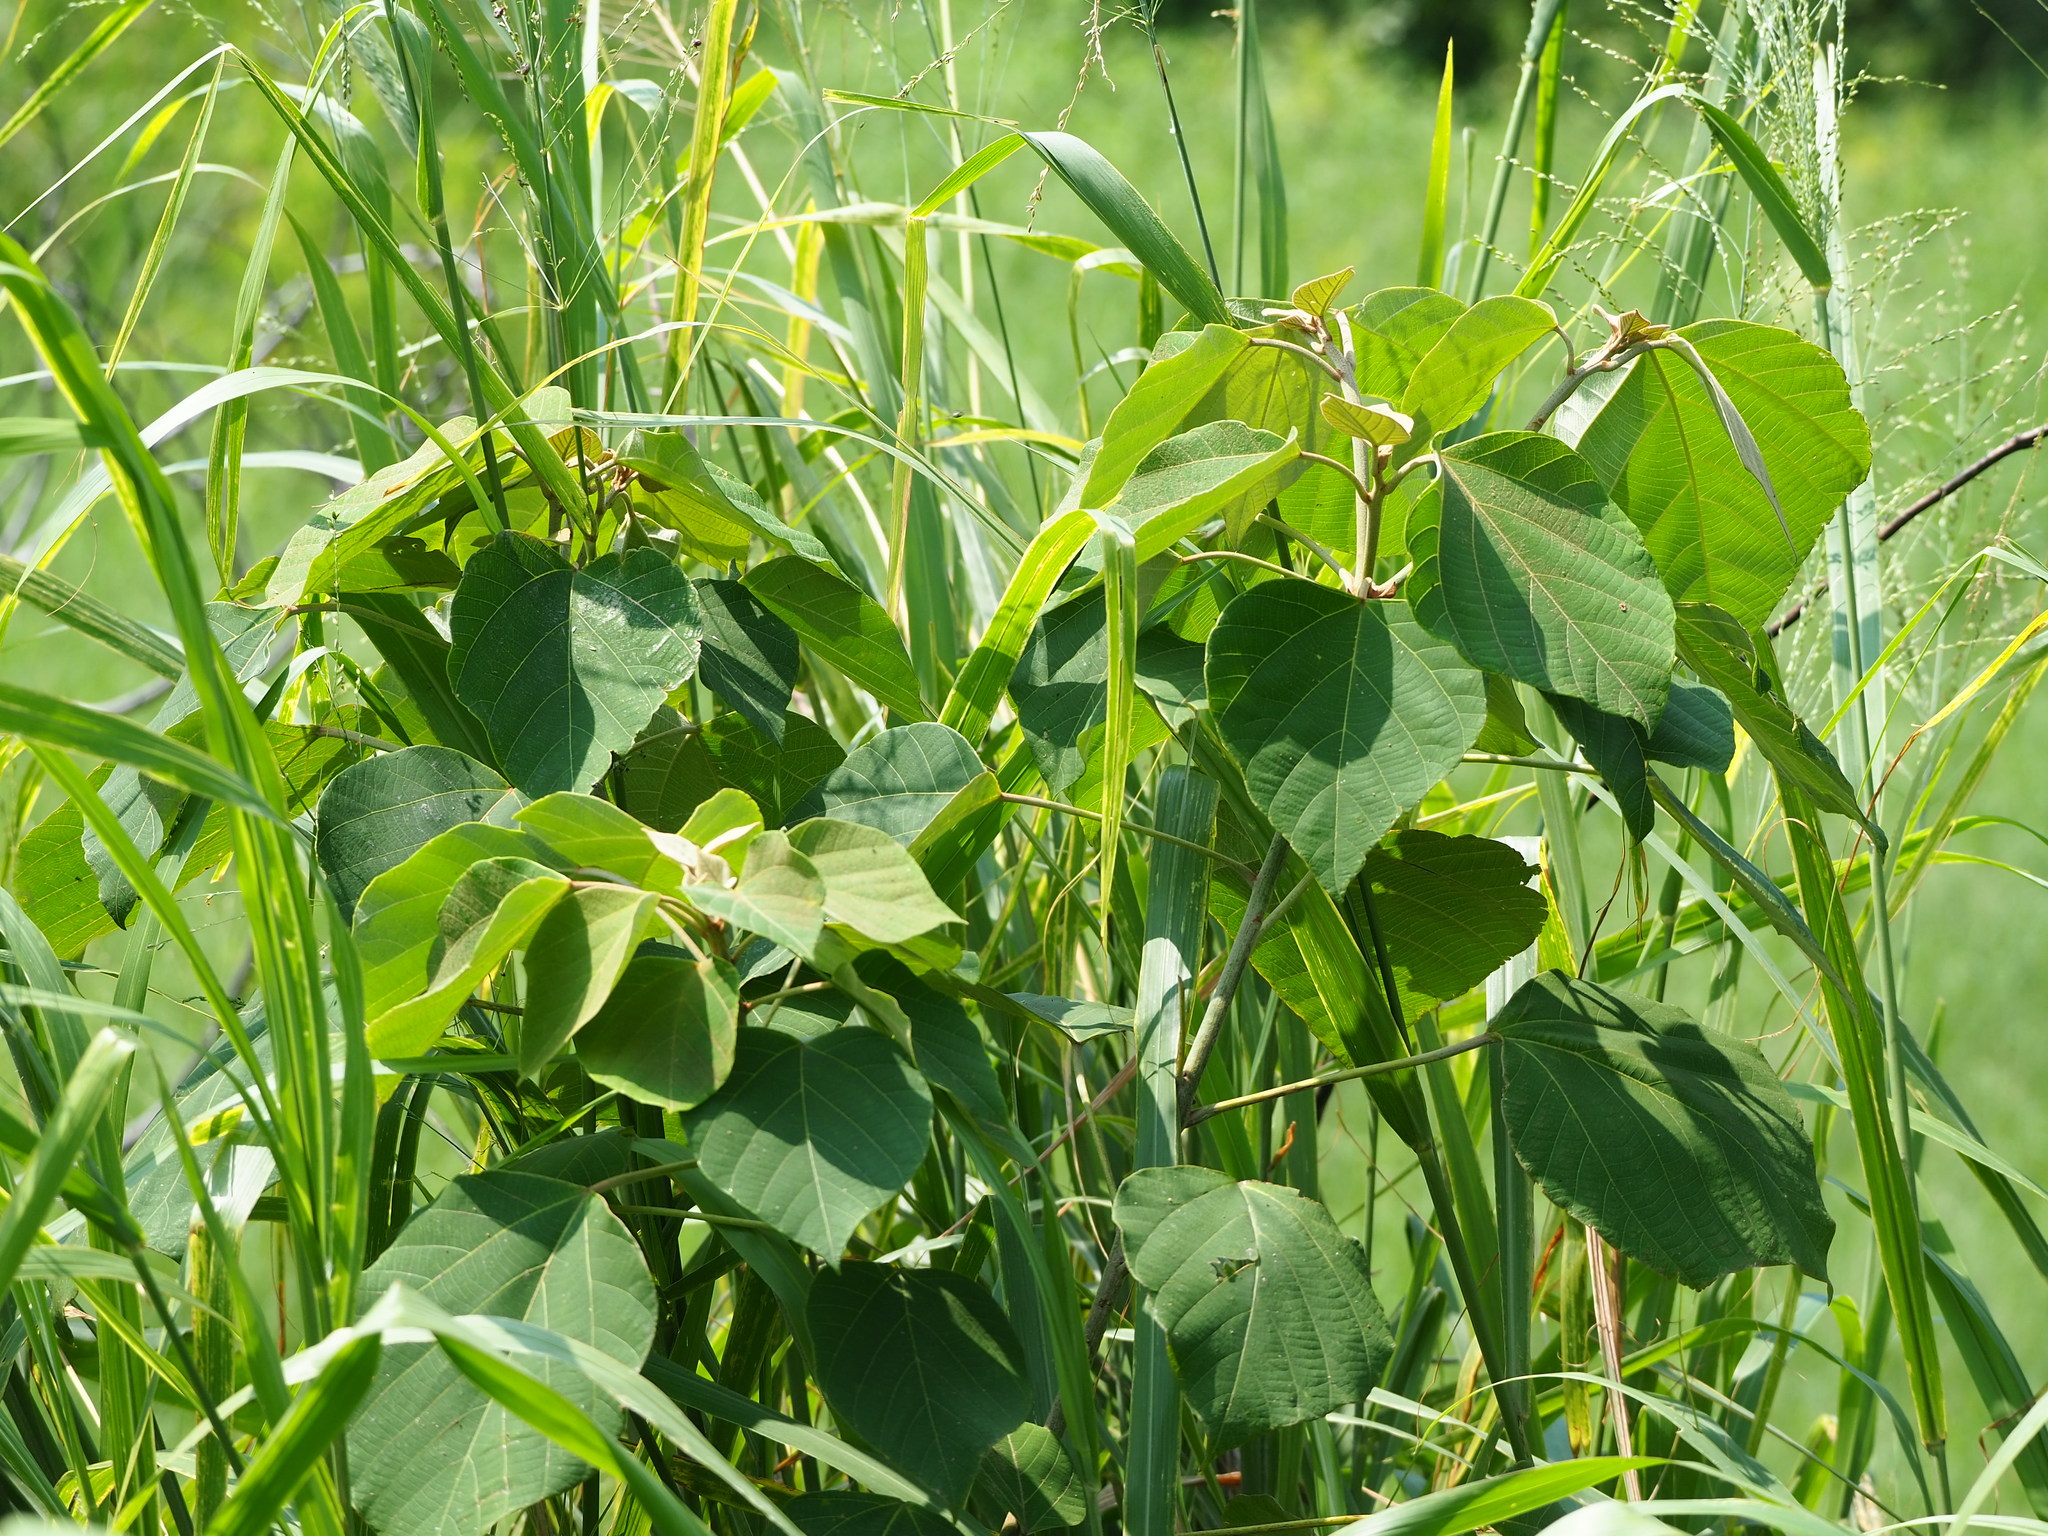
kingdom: Plantae
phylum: Tracheophyta
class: Magnoliopsida
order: Malpighiales
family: Euphorbiaceae
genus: Mallotus
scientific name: Mallotus japonicus
